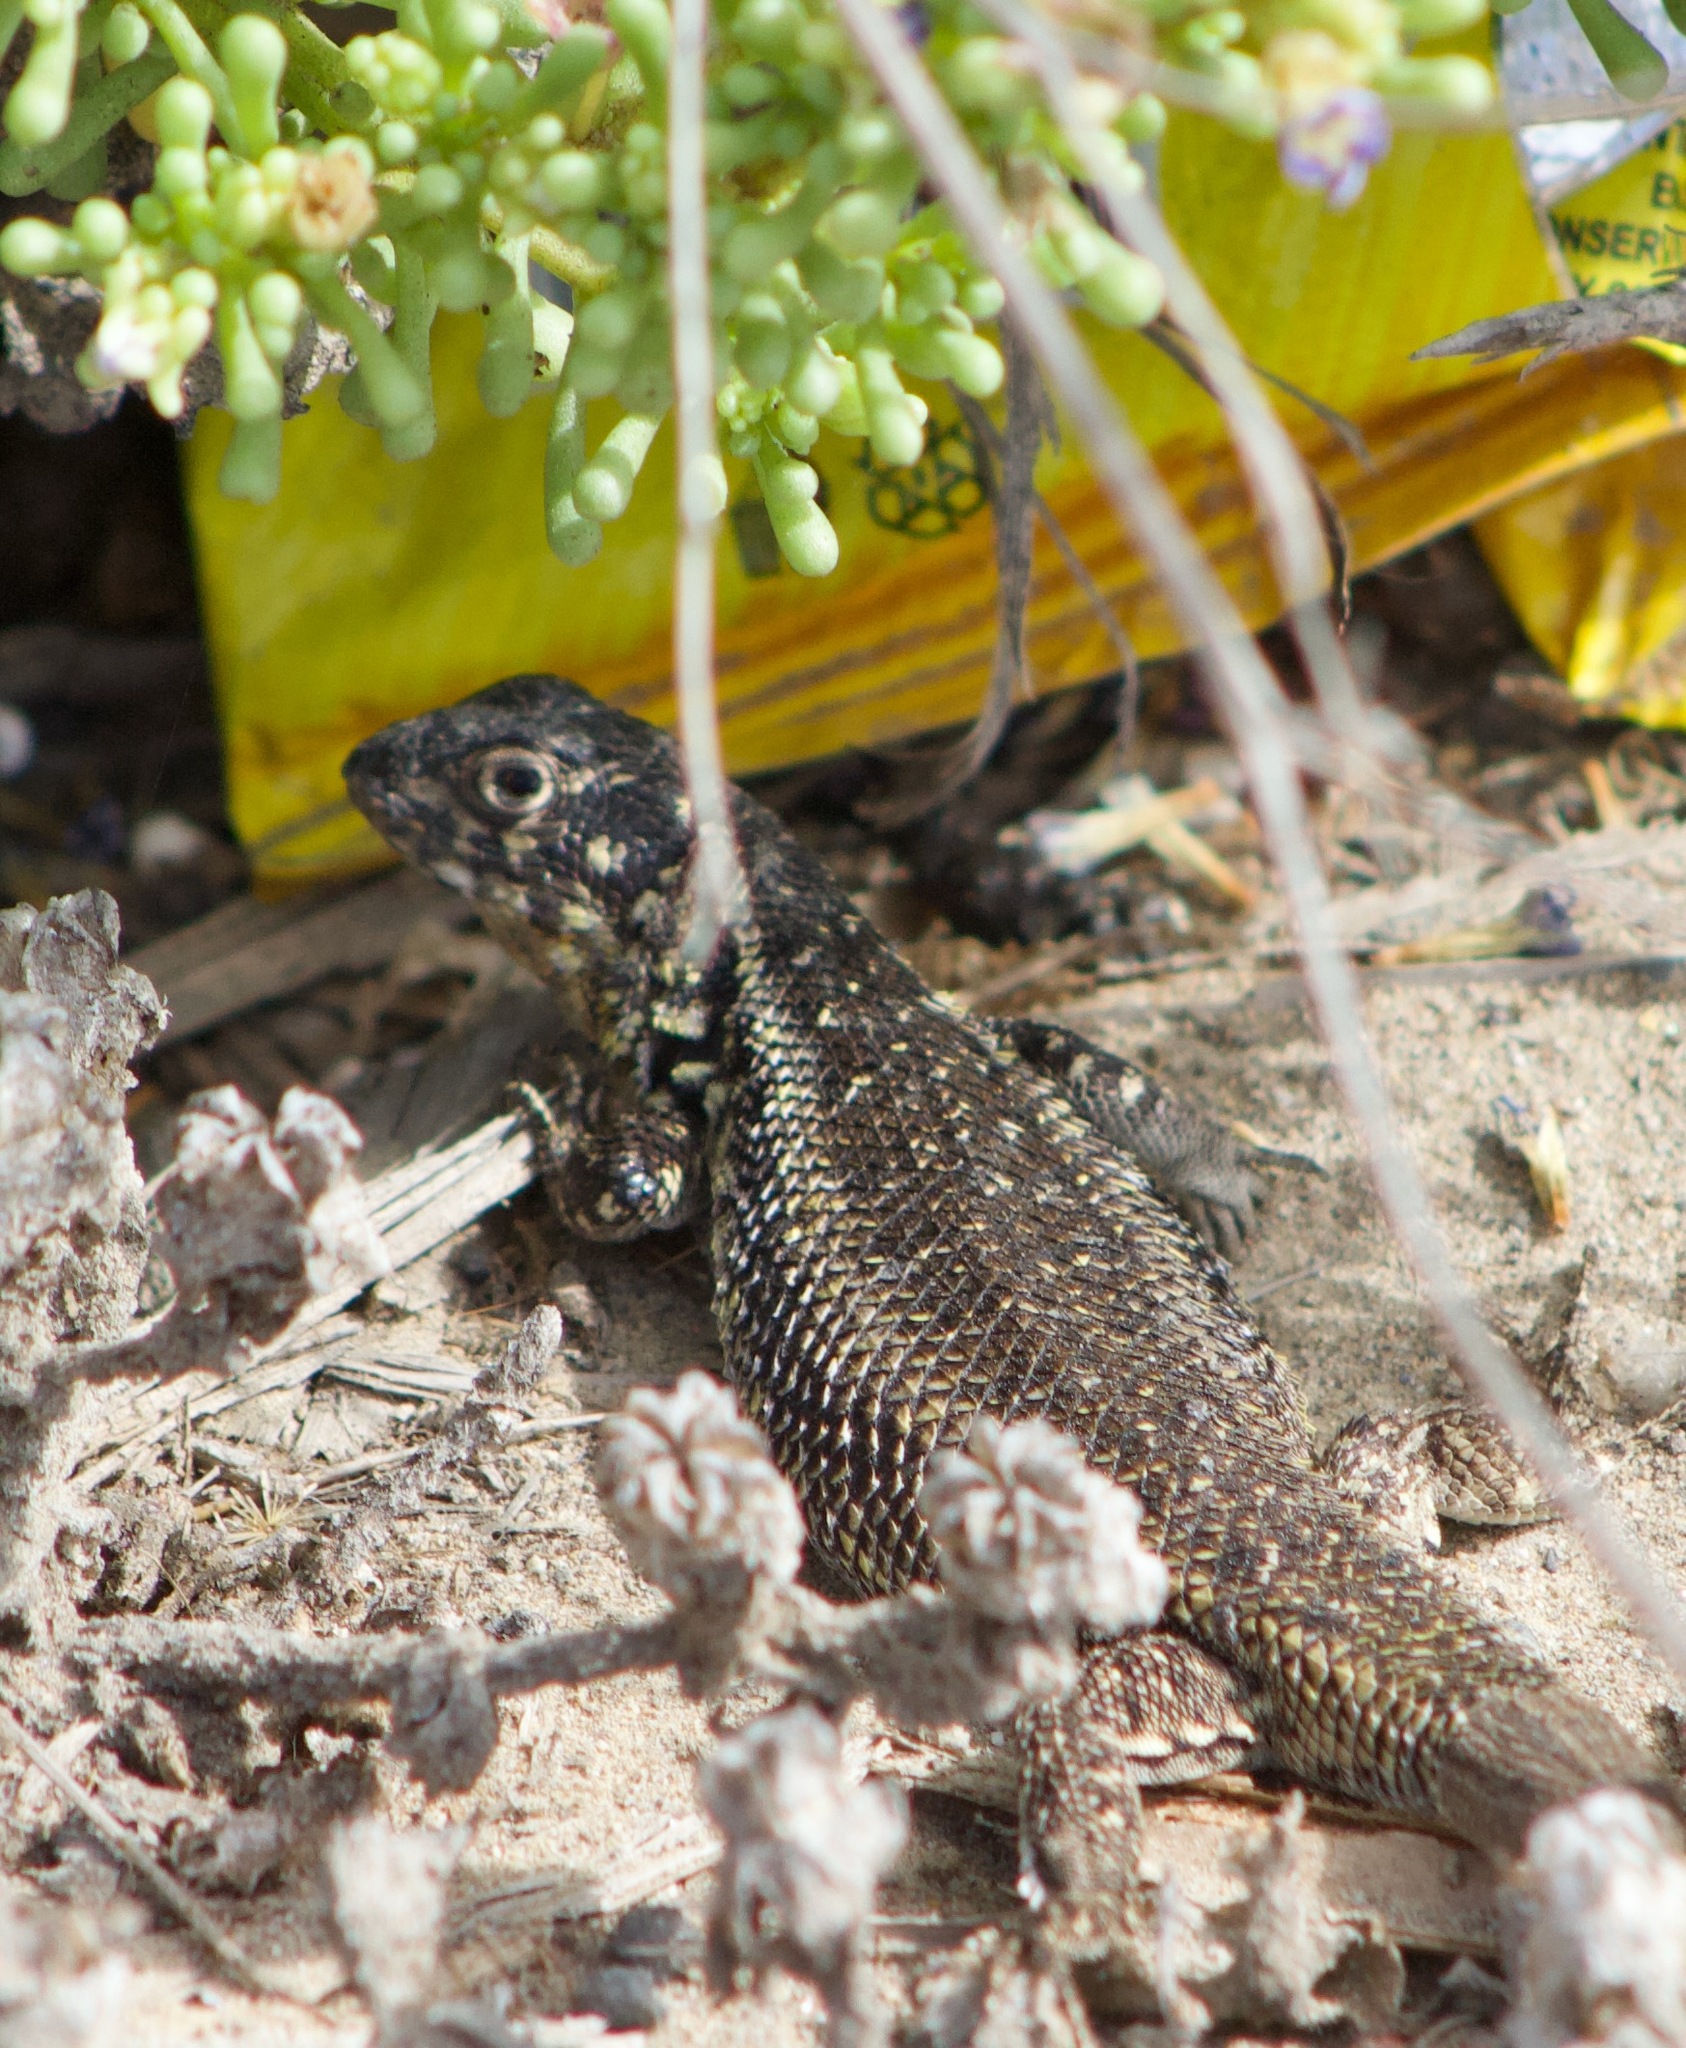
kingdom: Animalia
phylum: Chordata
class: Squamata
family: Liolaemidae
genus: Liolaemus
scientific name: Liolaemus zapallarensis
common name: Zapallaren tree iguana
